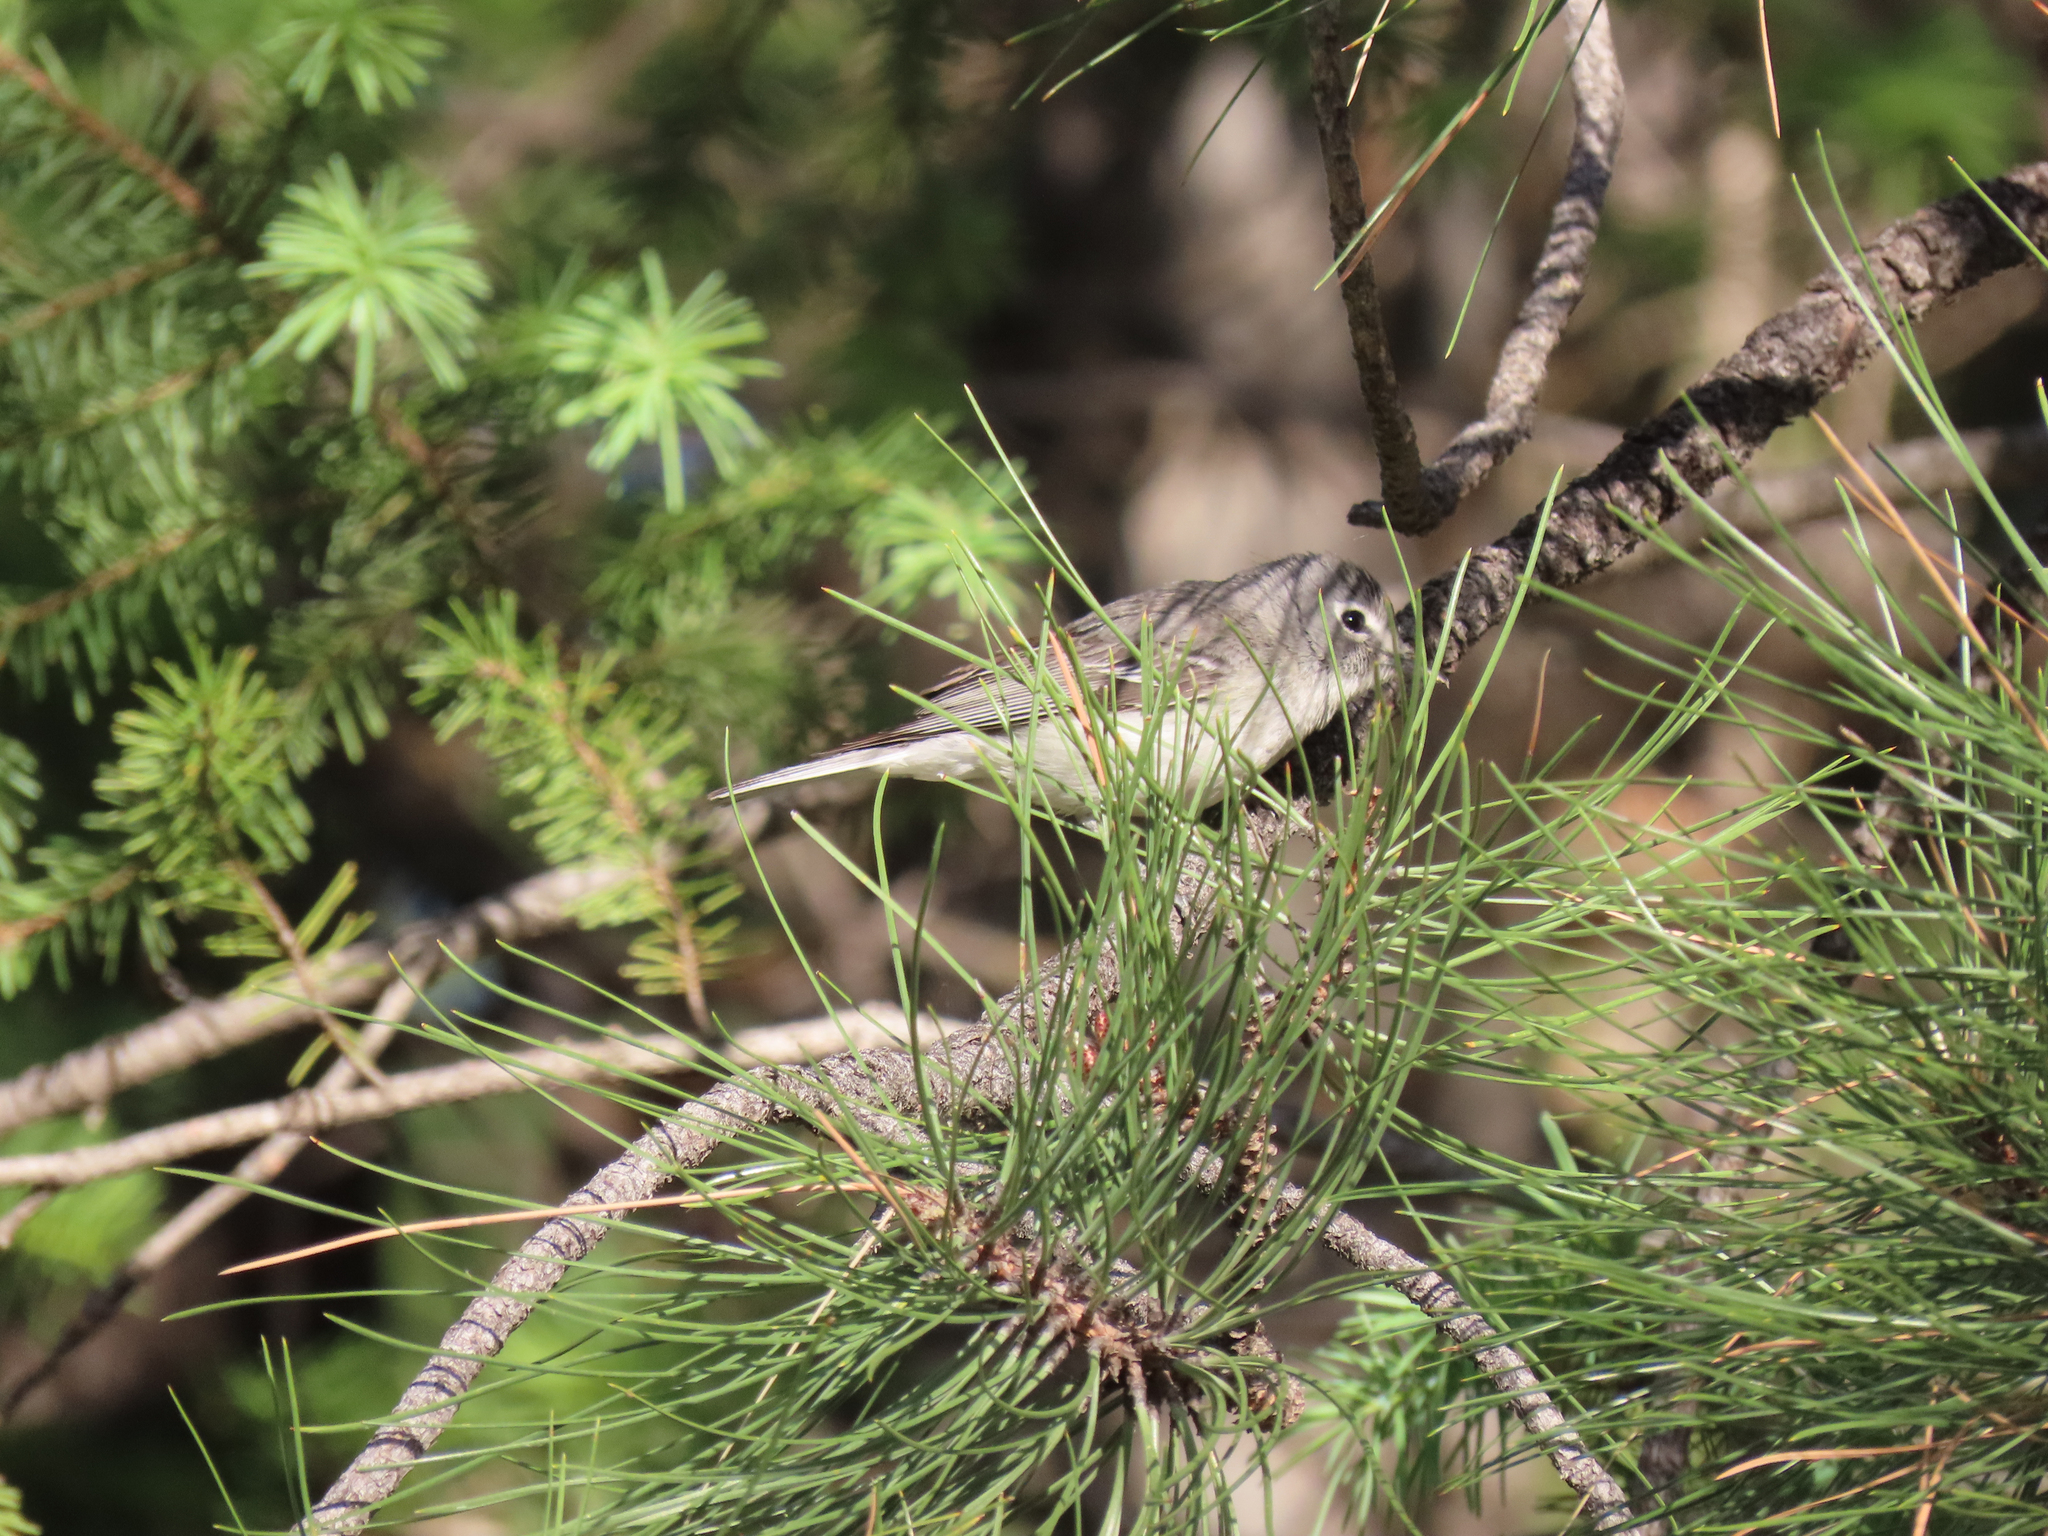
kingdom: Animalia
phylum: Chordata
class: Aves
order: Passeriformes
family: Vireonidae
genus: Vireo
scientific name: Vireo plumbeus
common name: Plumbeous vireo
